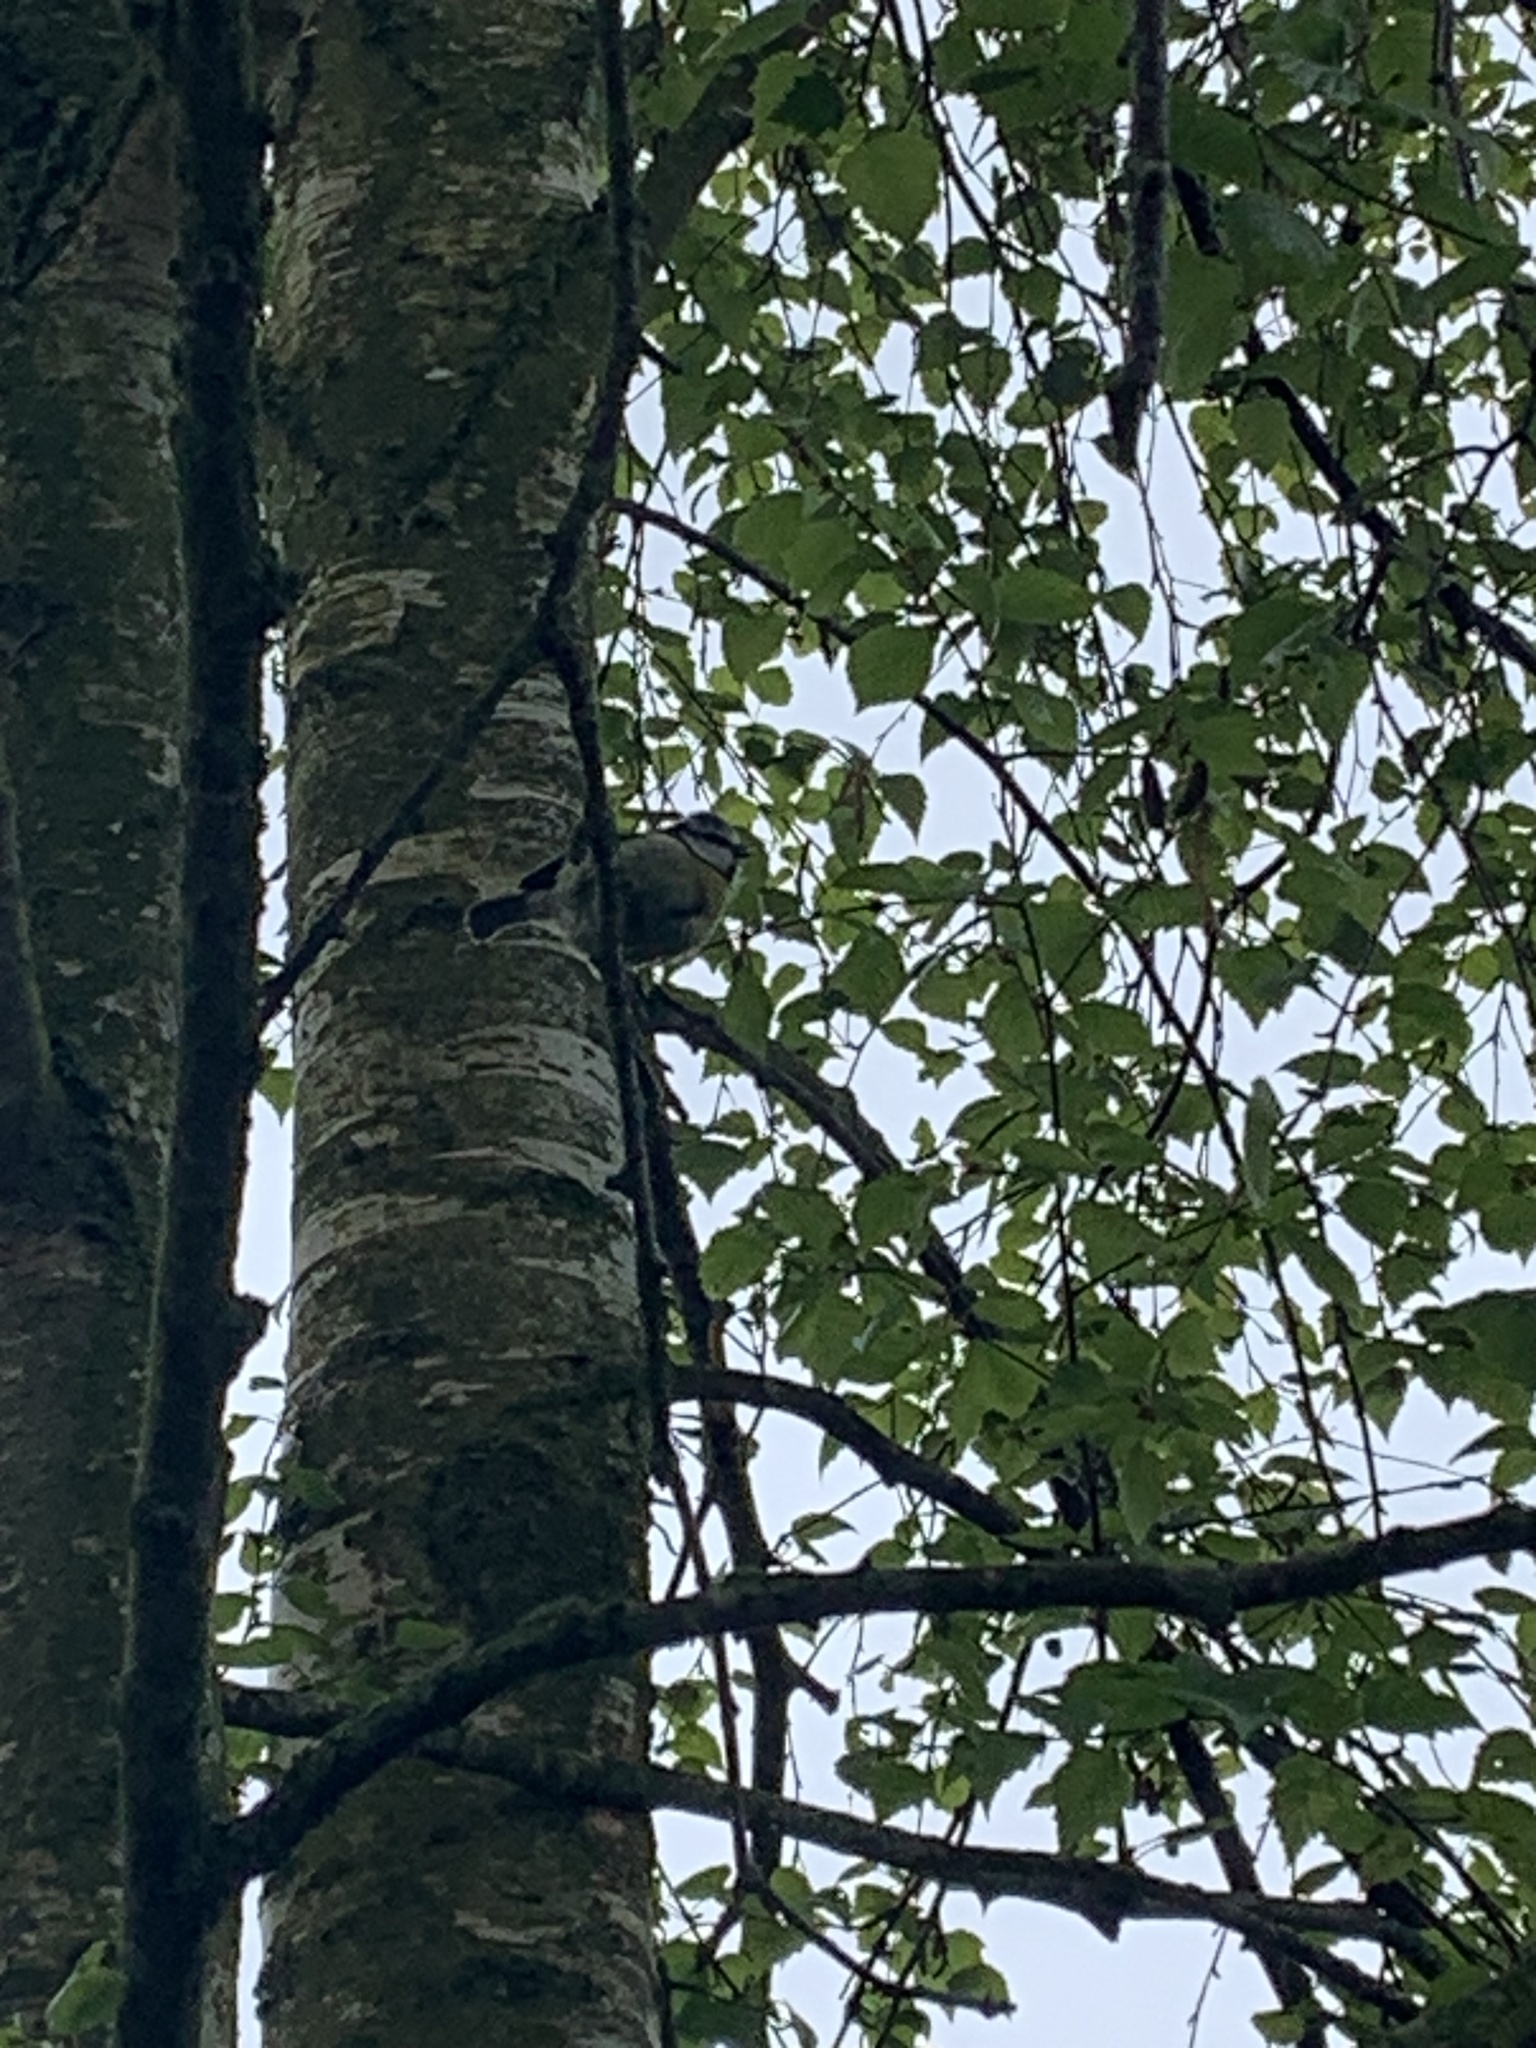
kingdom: Animalia
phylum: Chordata
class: Aves
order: Passeriformes
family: Paridae
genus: Cyanistes
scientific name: Cyanistes caeruleus
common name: Eurasian blue tit
